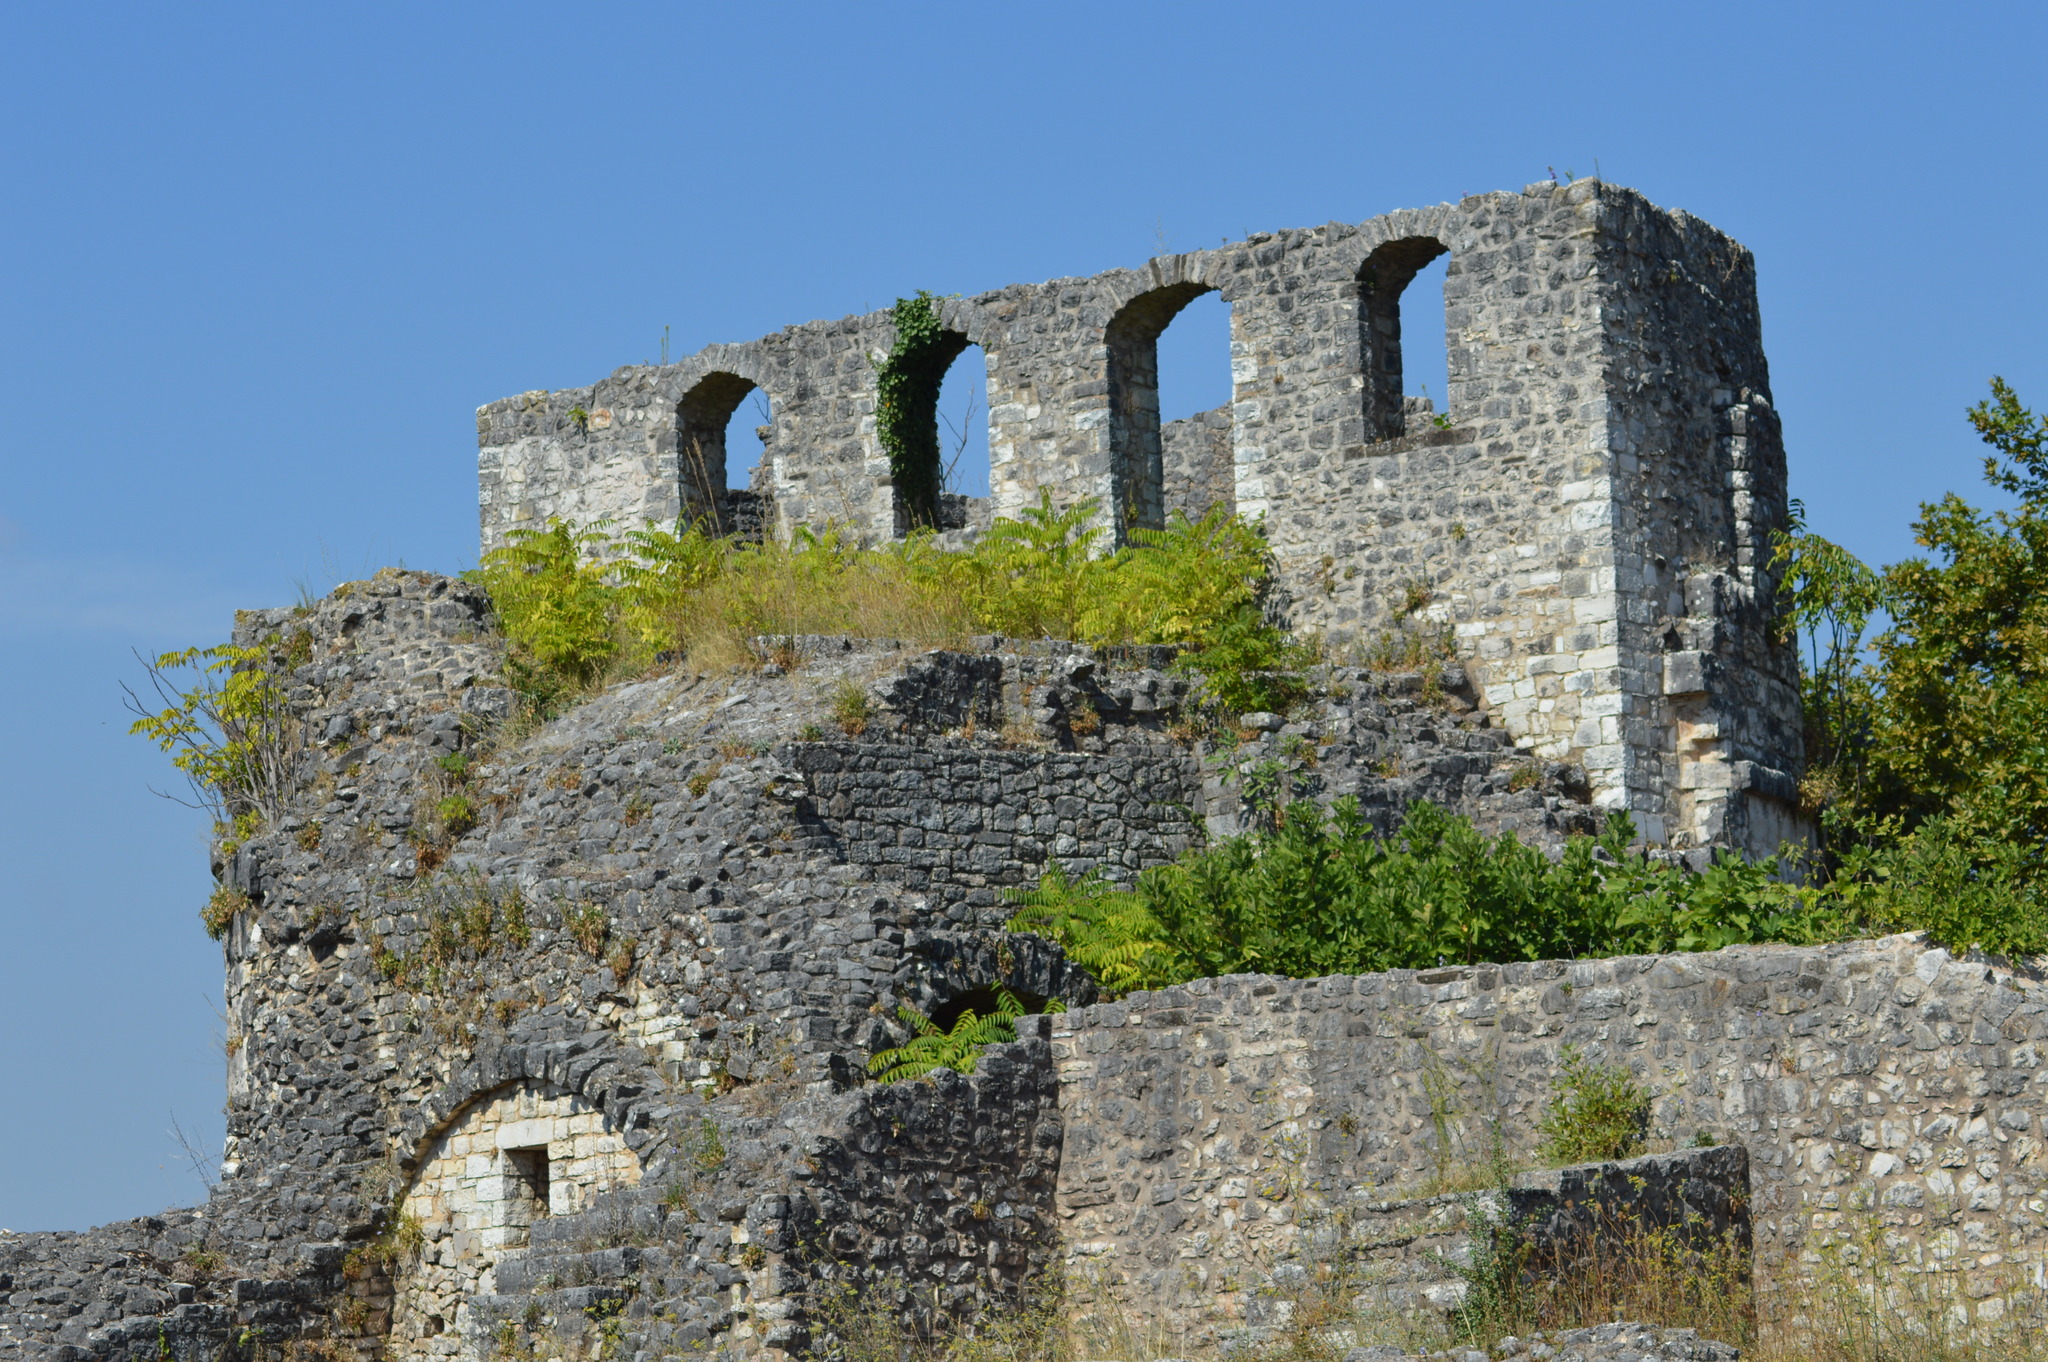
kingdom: Plantae
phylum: Tracheophyta
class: Magnoliopsida
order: Sapindales
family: Simaroubaceae
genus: Ailanthus
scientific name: Ailanthus altissima
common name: Tree-of-heaven
